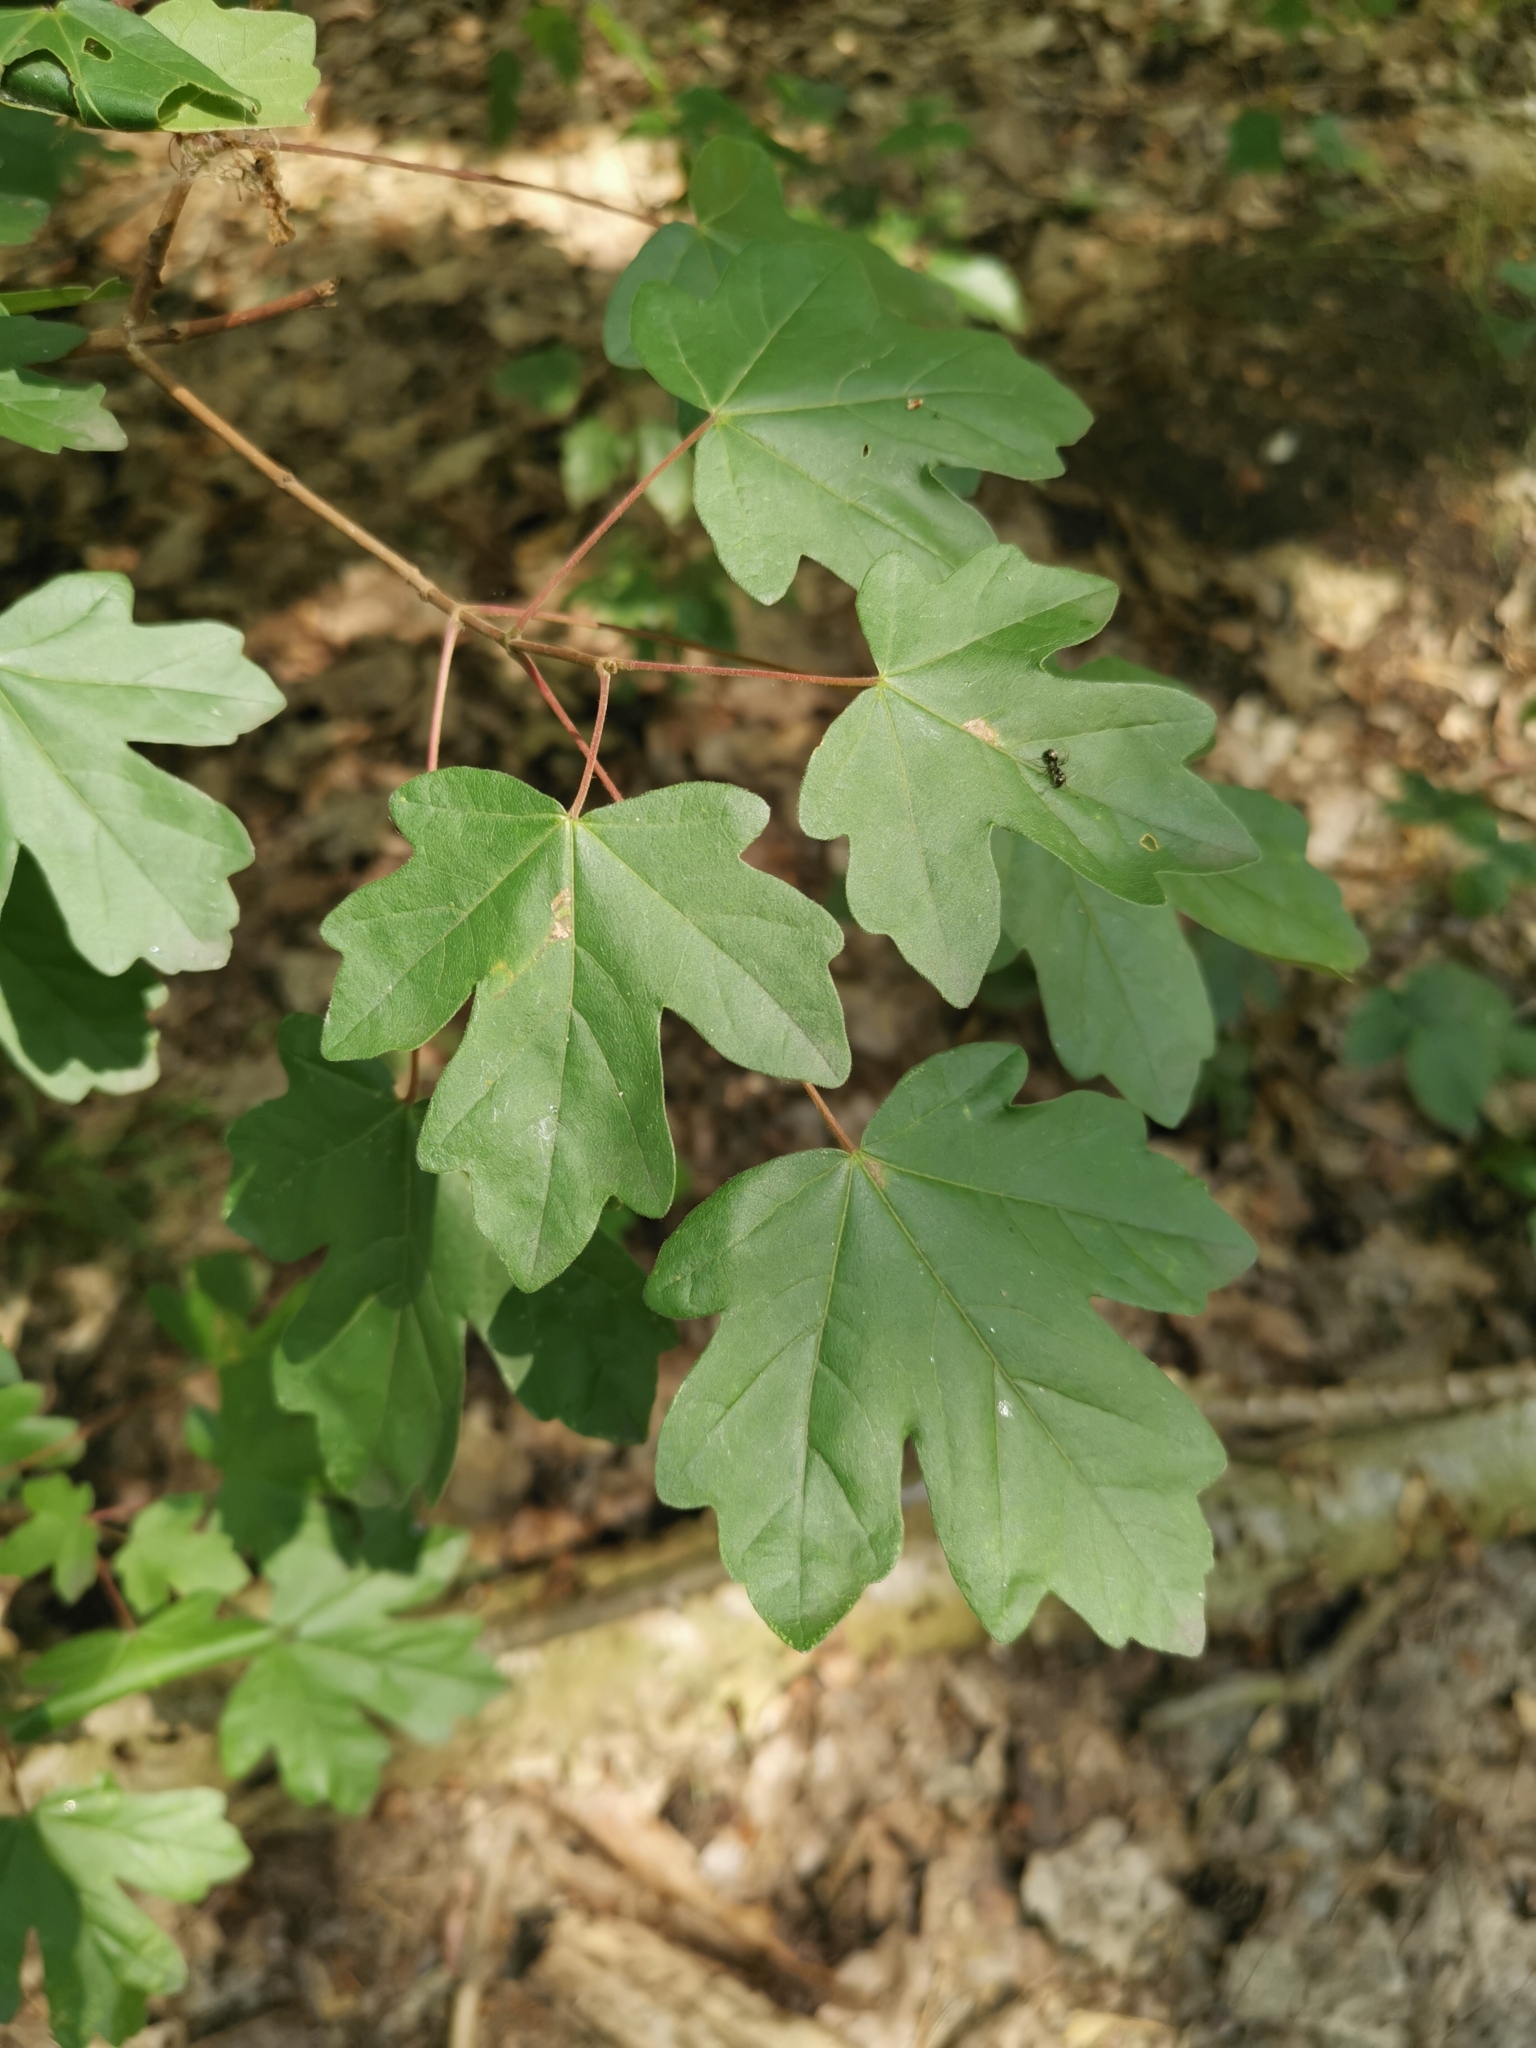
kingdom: Plantae
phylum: Tracheophyta
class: Magnoliopsida
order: Sapindales
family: Sapindaceae
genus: Acer
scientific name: Acer campestre
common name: Field maple
